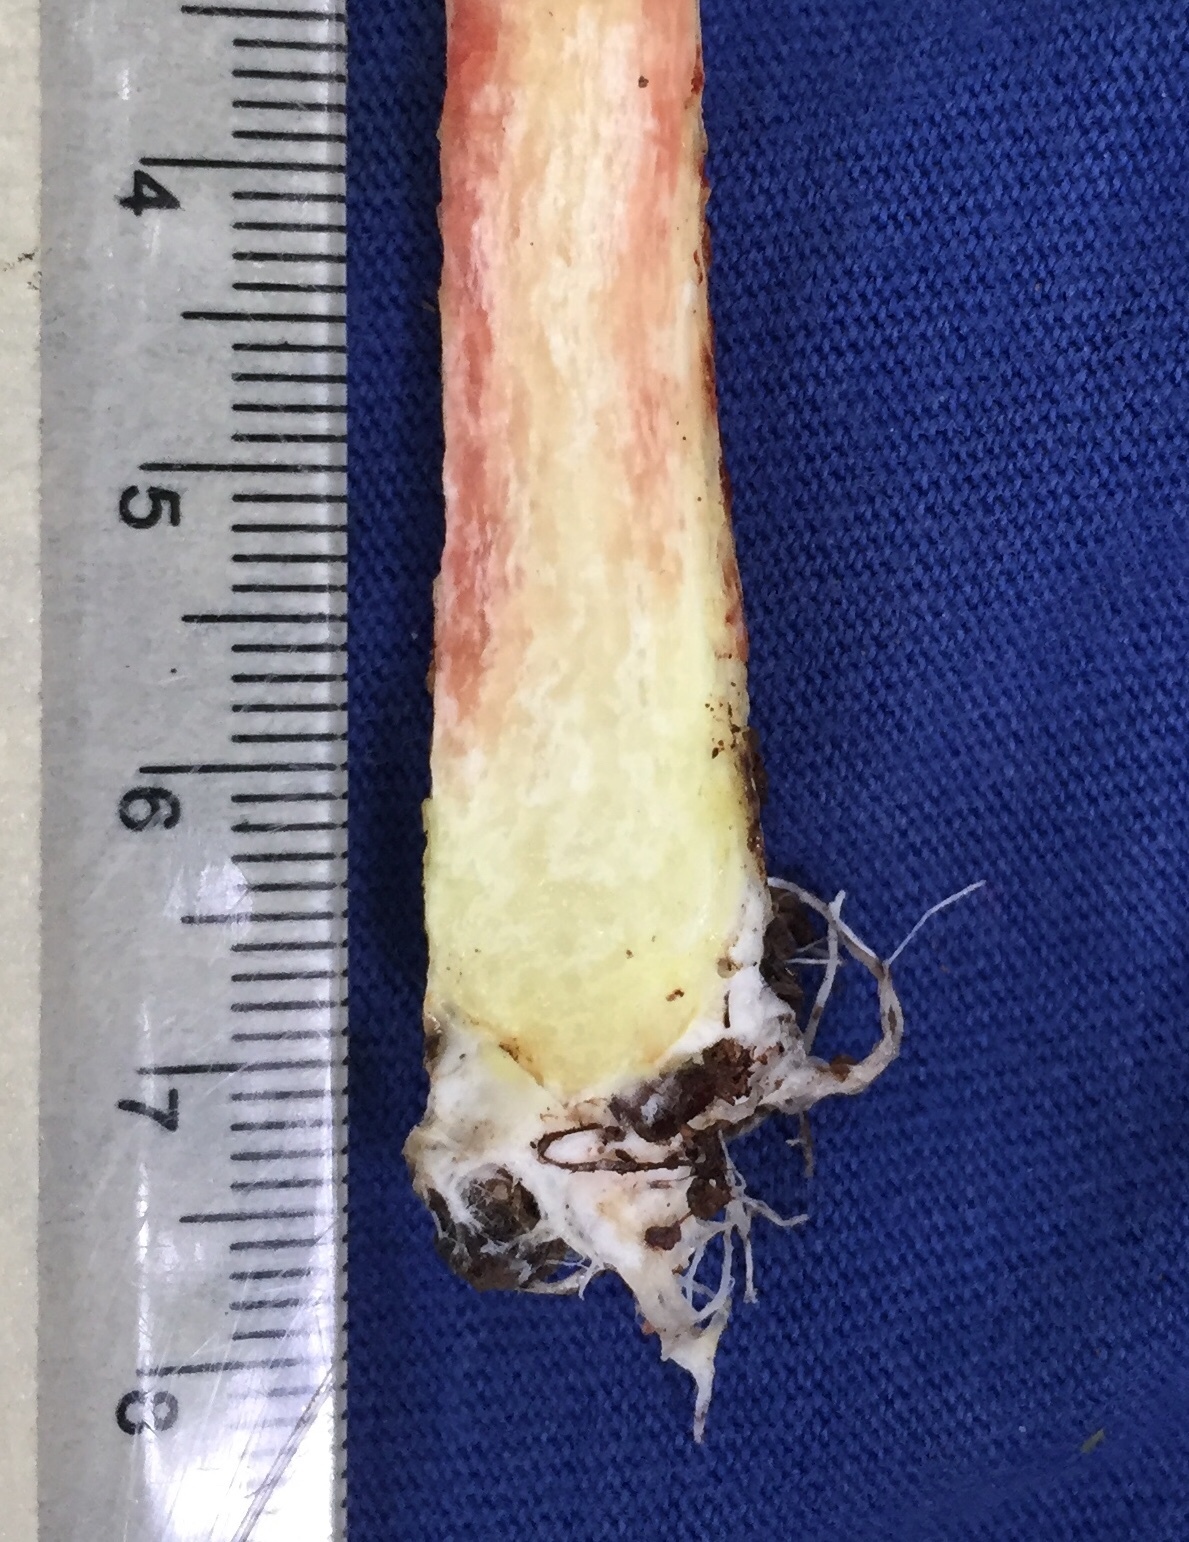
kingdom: Fungi
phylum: Basidiomycota
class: Agaricomycetes
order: Boletales
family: Boletaceae
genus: Aureoboletus
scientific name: Aureoboletus betula
